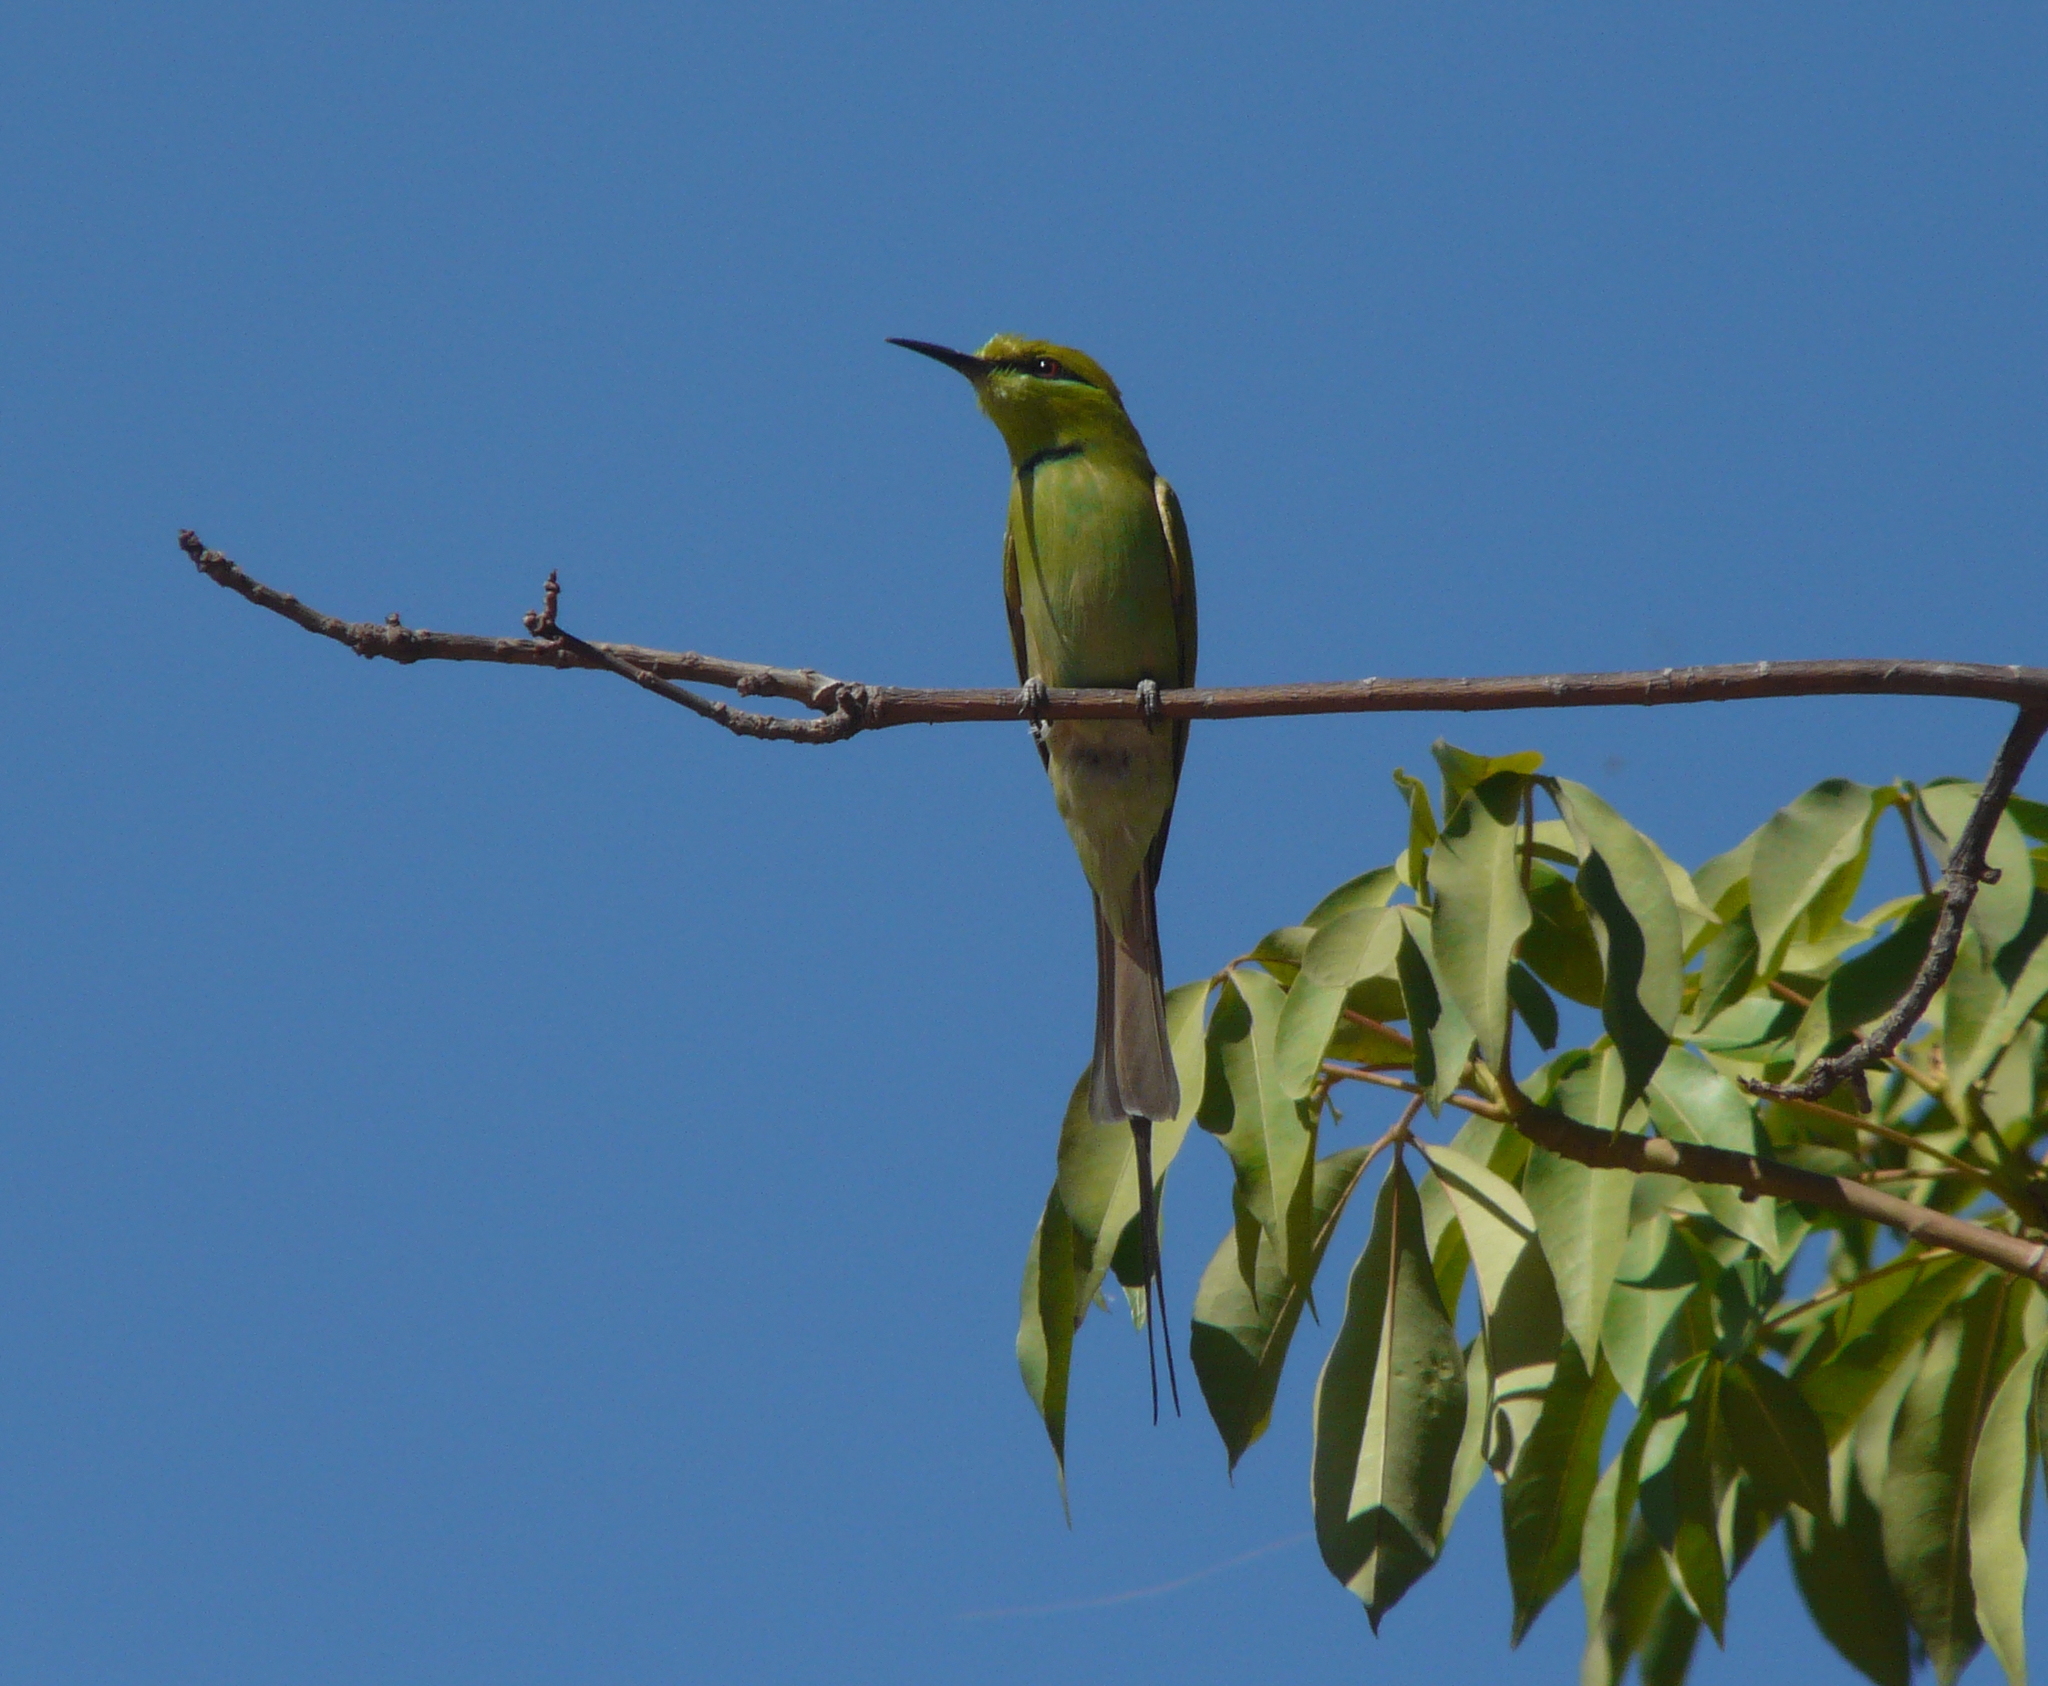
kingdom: Animalia
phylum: Chordata
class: Aves
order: Coraciiformes
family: Meropidae
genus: Merops
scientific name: Merops viridissimus
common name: African green bee-eater
